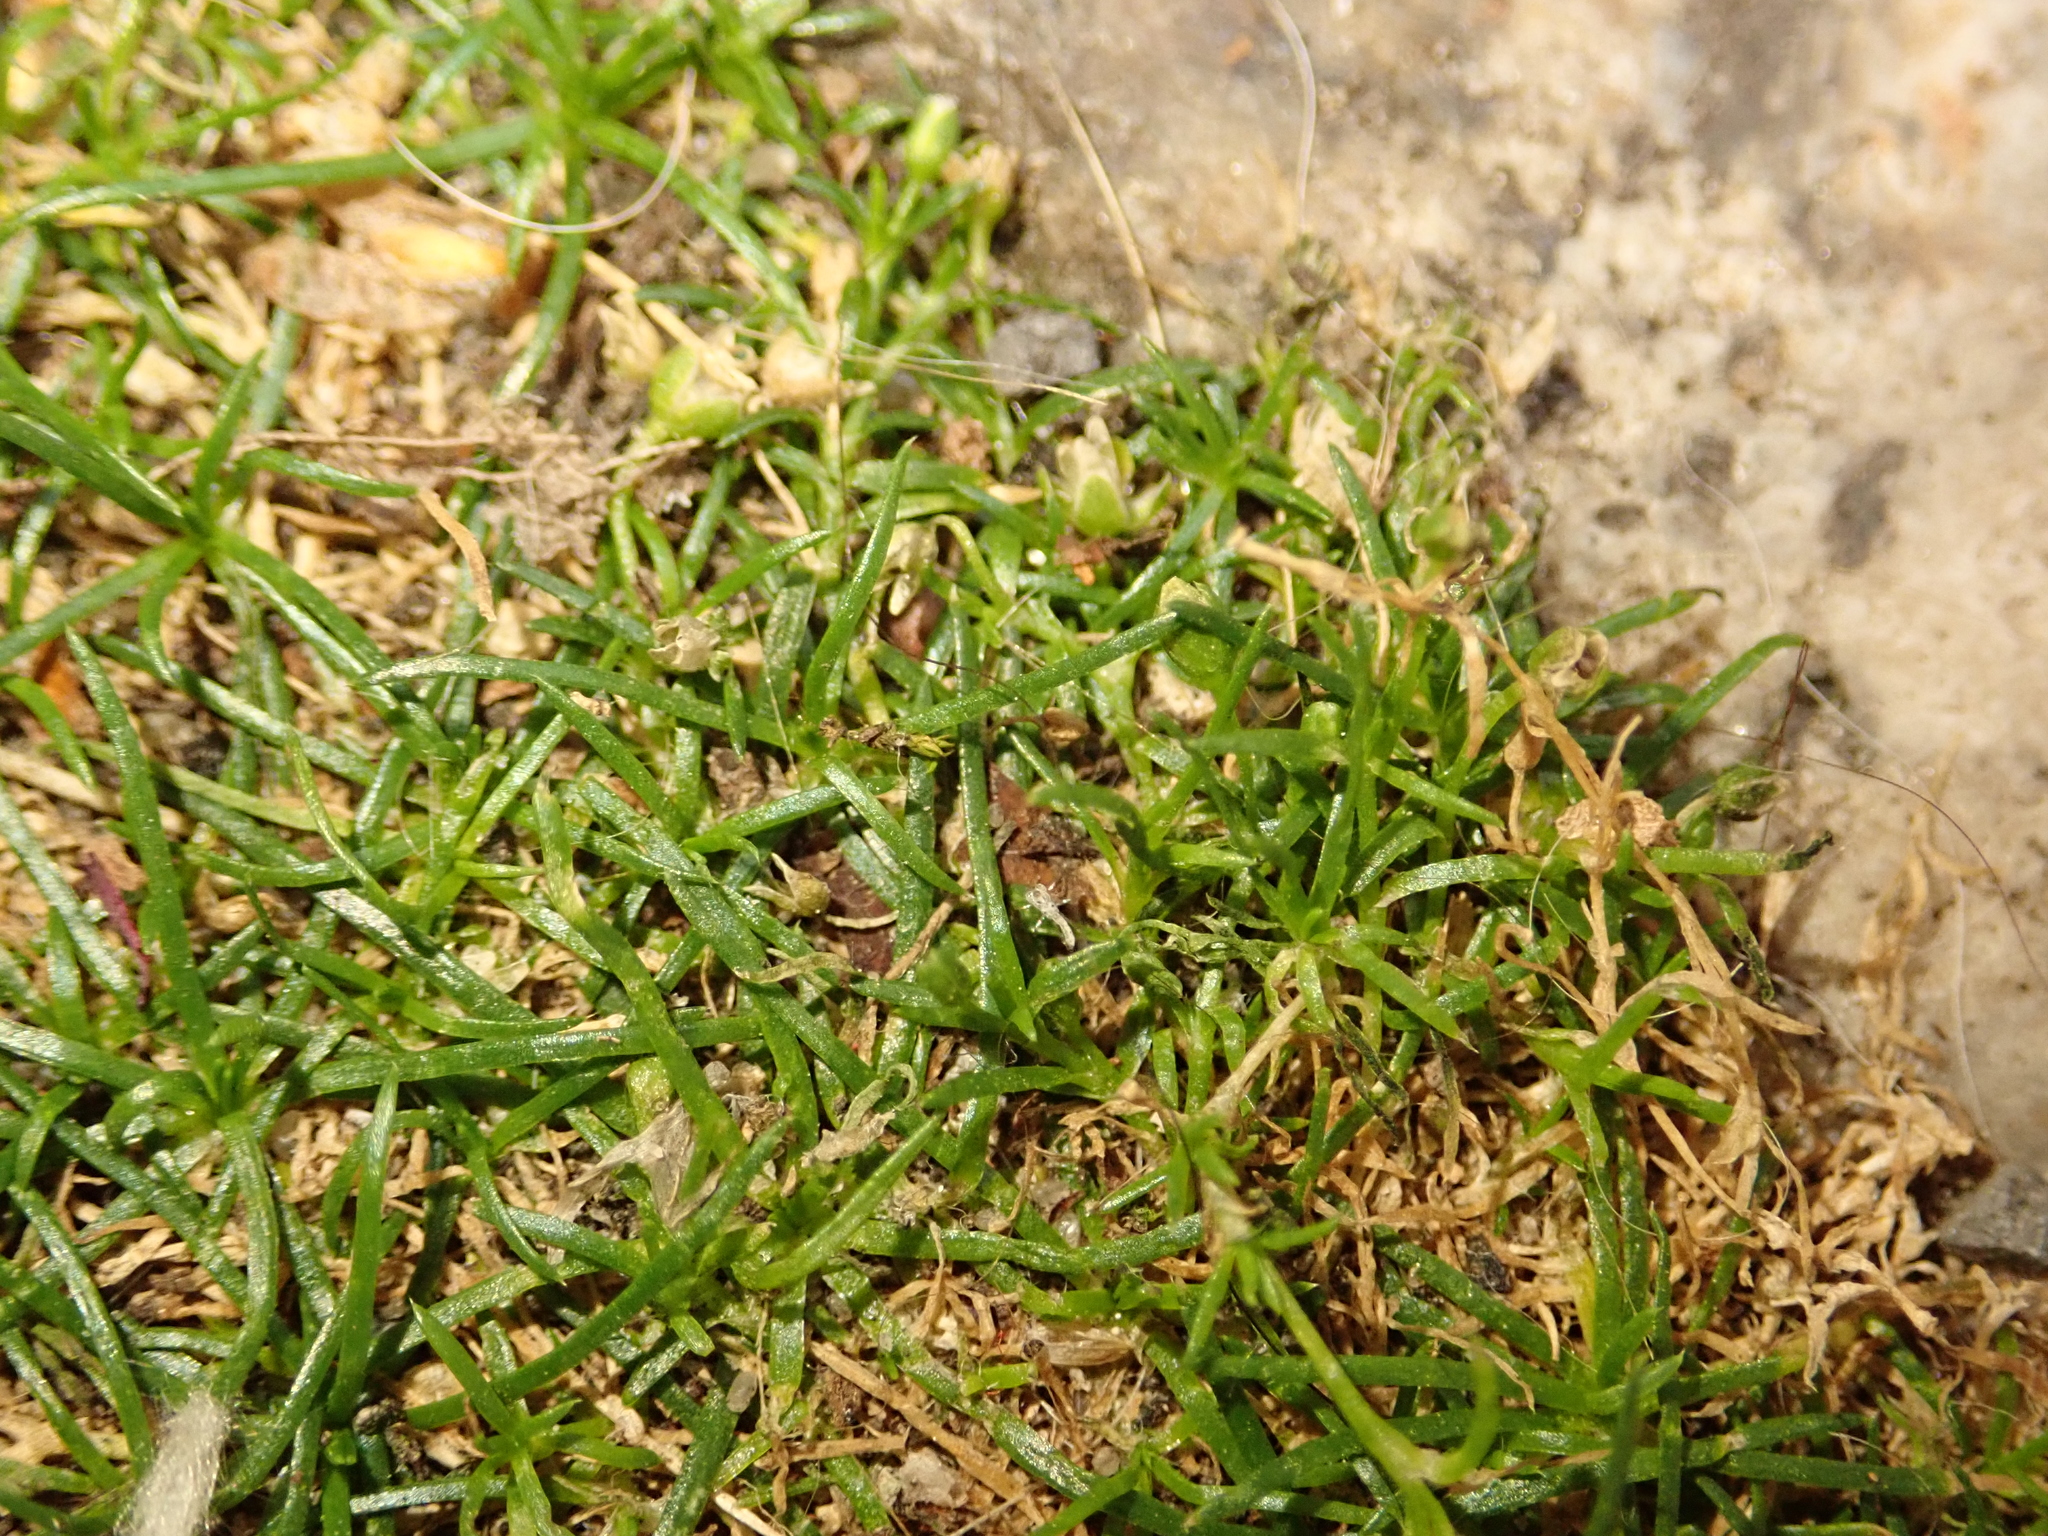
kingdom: Plantae
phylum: Tracheophyta
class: Magnoliopsida
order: Caryophyllales
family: Caryophyllaceae
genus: Sagina
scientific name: Sagina procumbens
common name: Procumbent pearlwort
